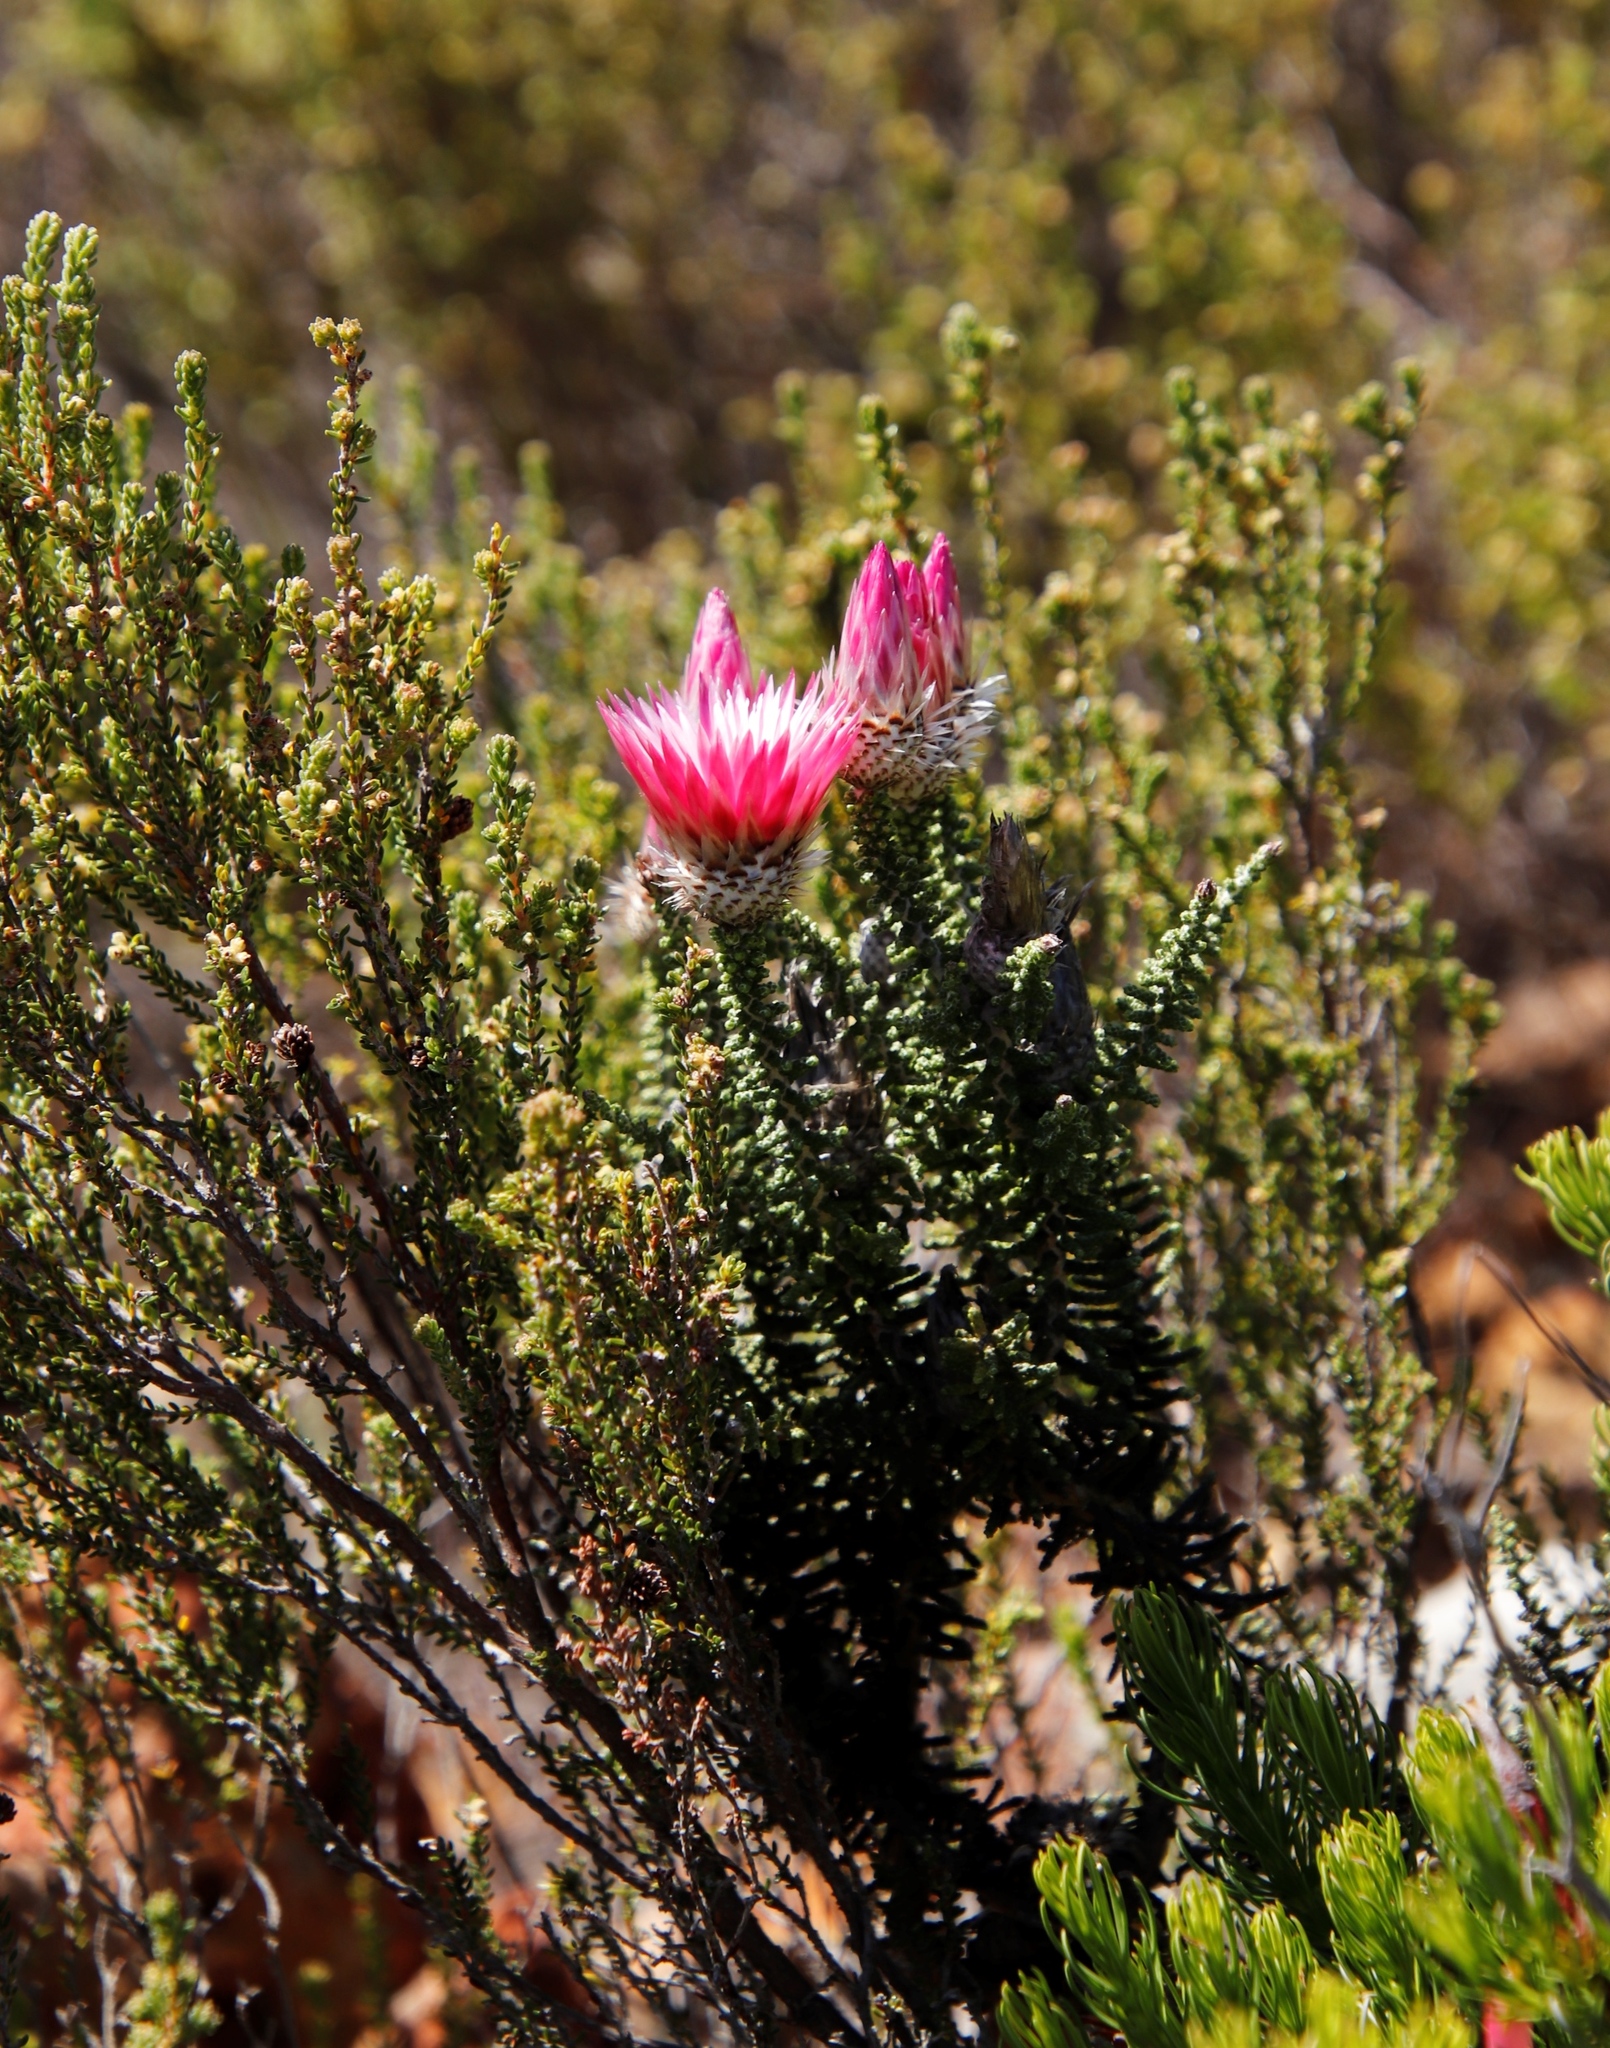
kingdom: Plantae
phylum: Tracheophyta
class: Magnoliopsida
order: Asterales
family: Asteraceae
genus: Phaenocoma
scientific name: Phaenocoma prolifera
